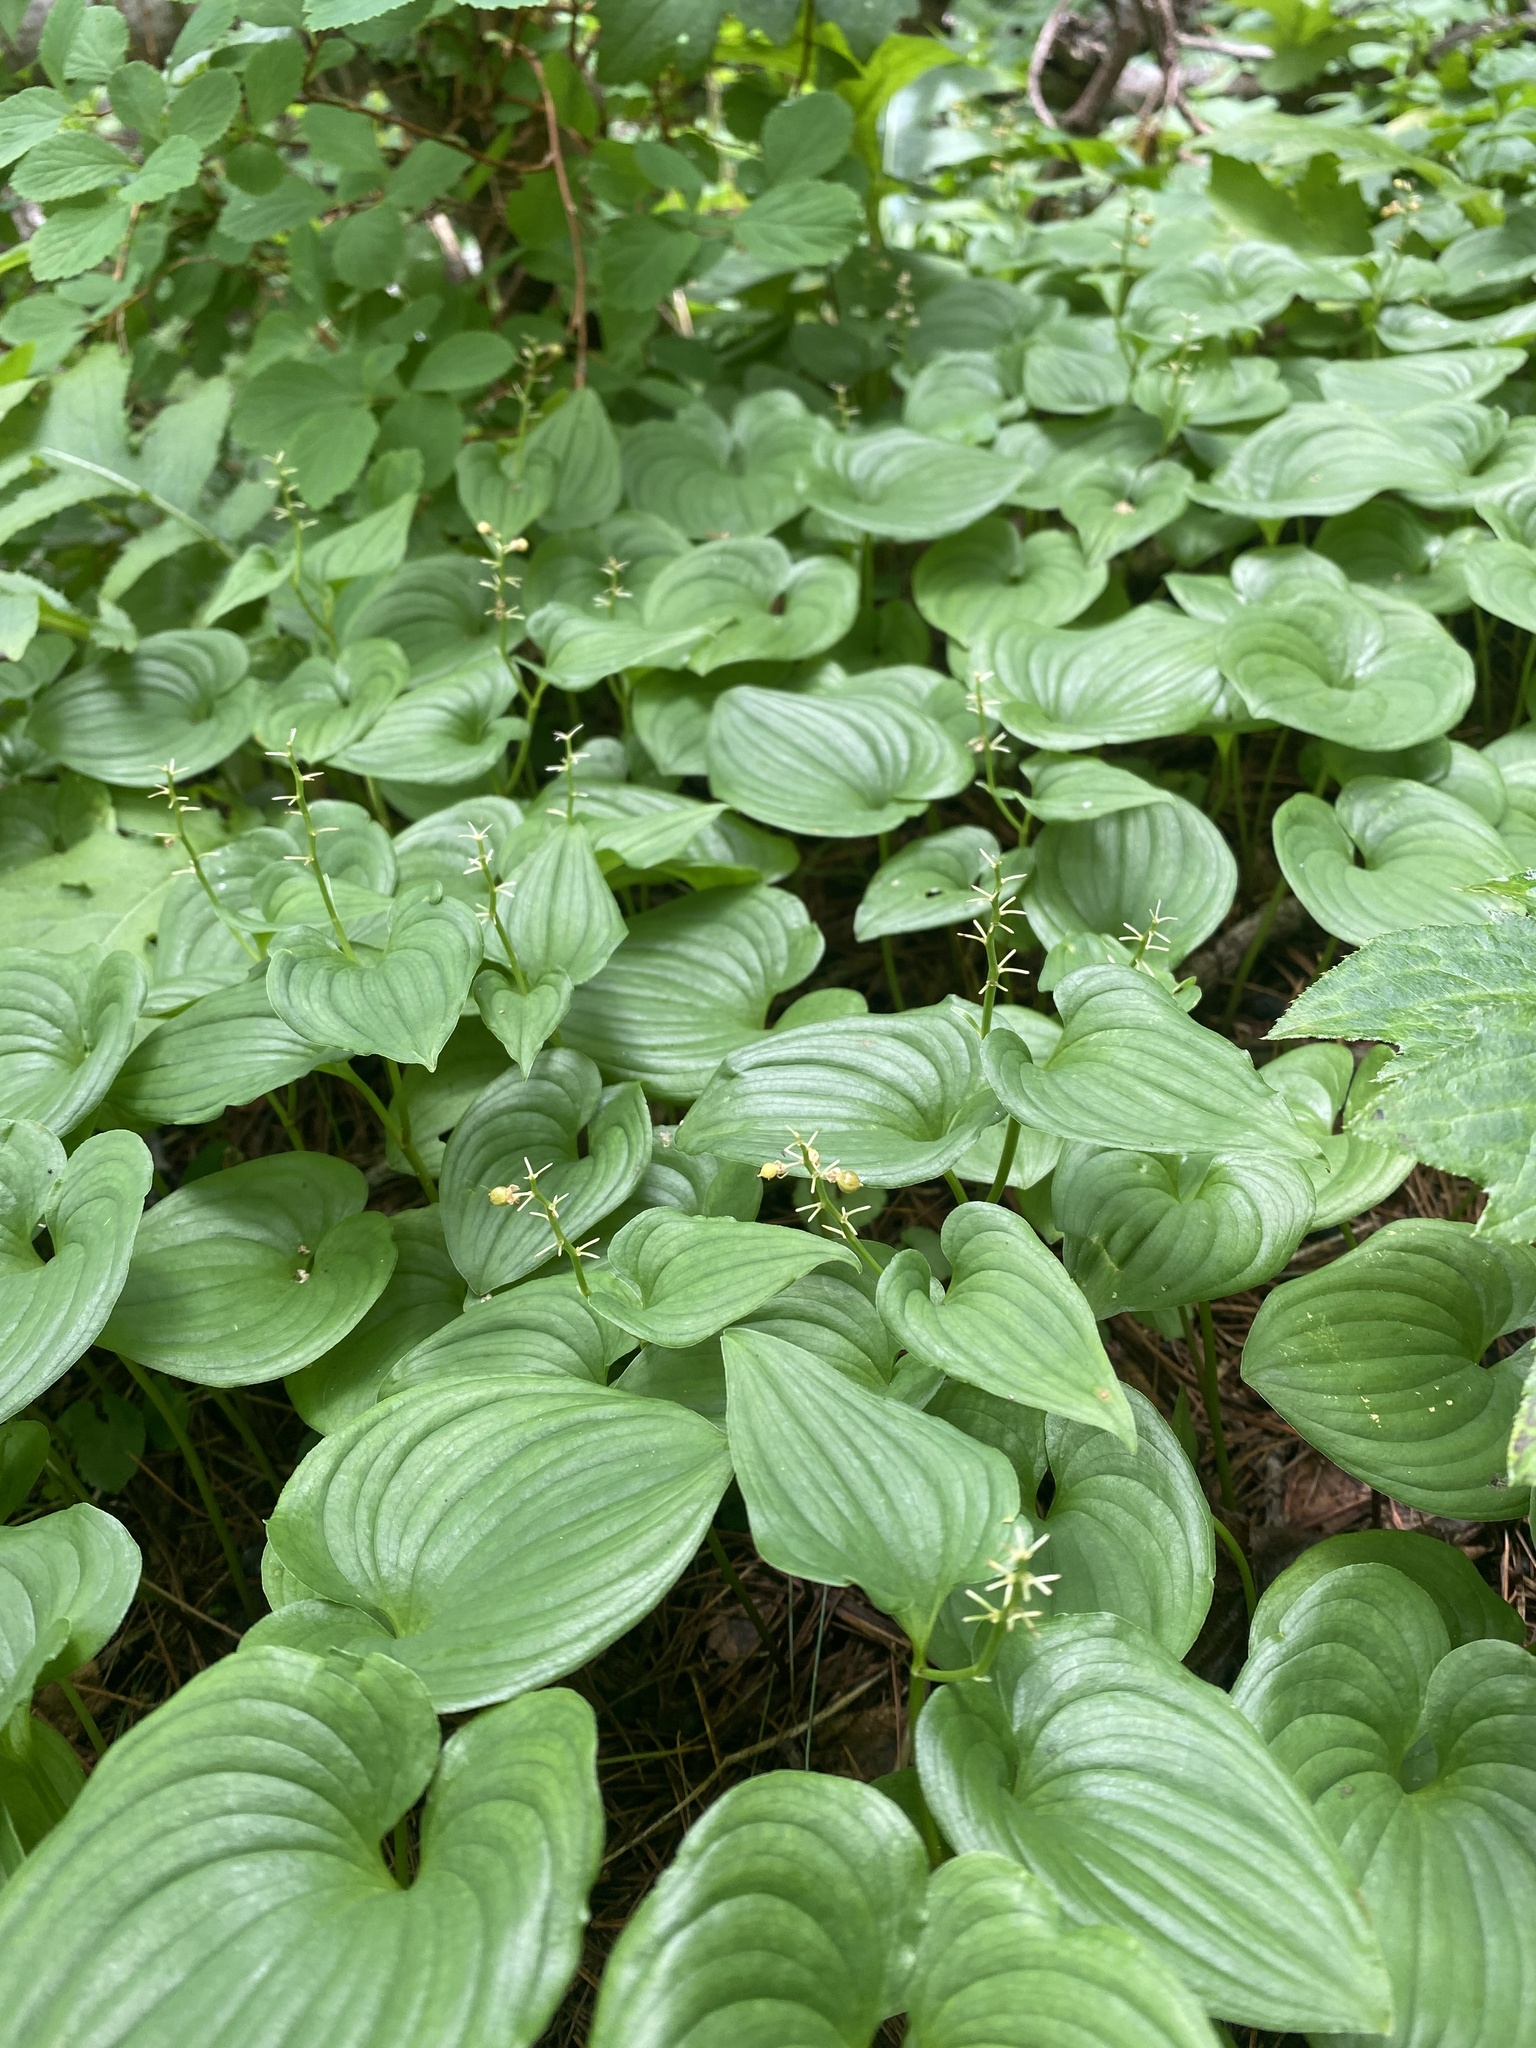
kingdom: Plantae
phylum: Tracheophyta
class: Liliopsida
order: Asparagales
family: Asparagaceae
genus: Maianthemum
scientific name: Maianthemum dilatatum
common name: False lily-of-the-valley
